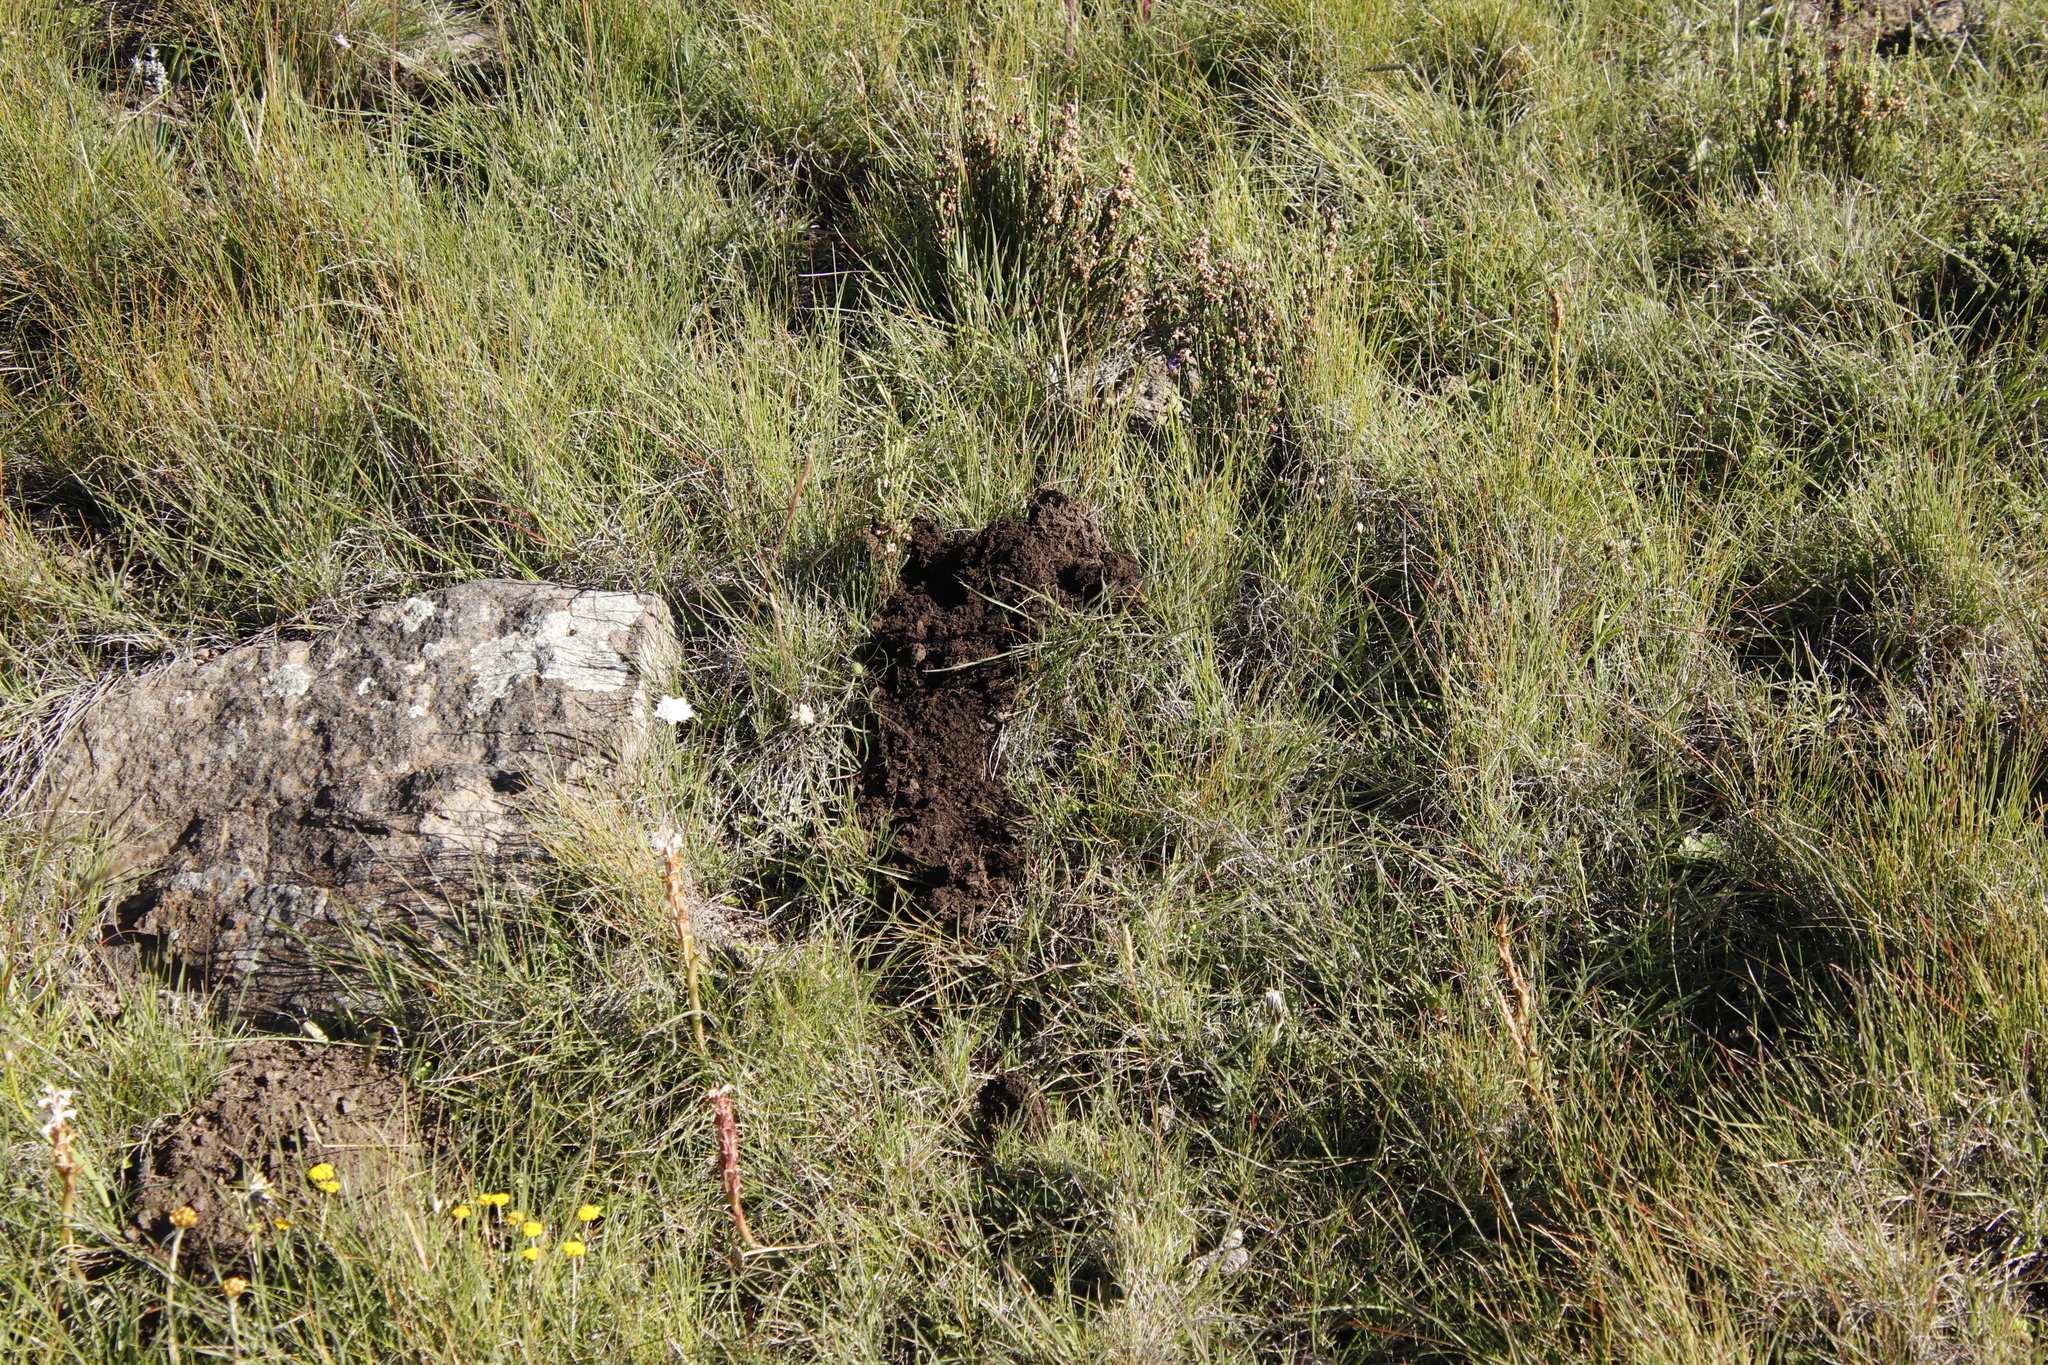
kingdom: Animalia
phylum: Chordata
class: Mammalia
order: Rodentia
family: Bathyergidae
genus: Cryptomys
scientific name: Cryptomys hottentotus
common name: Southern african mole-rat
